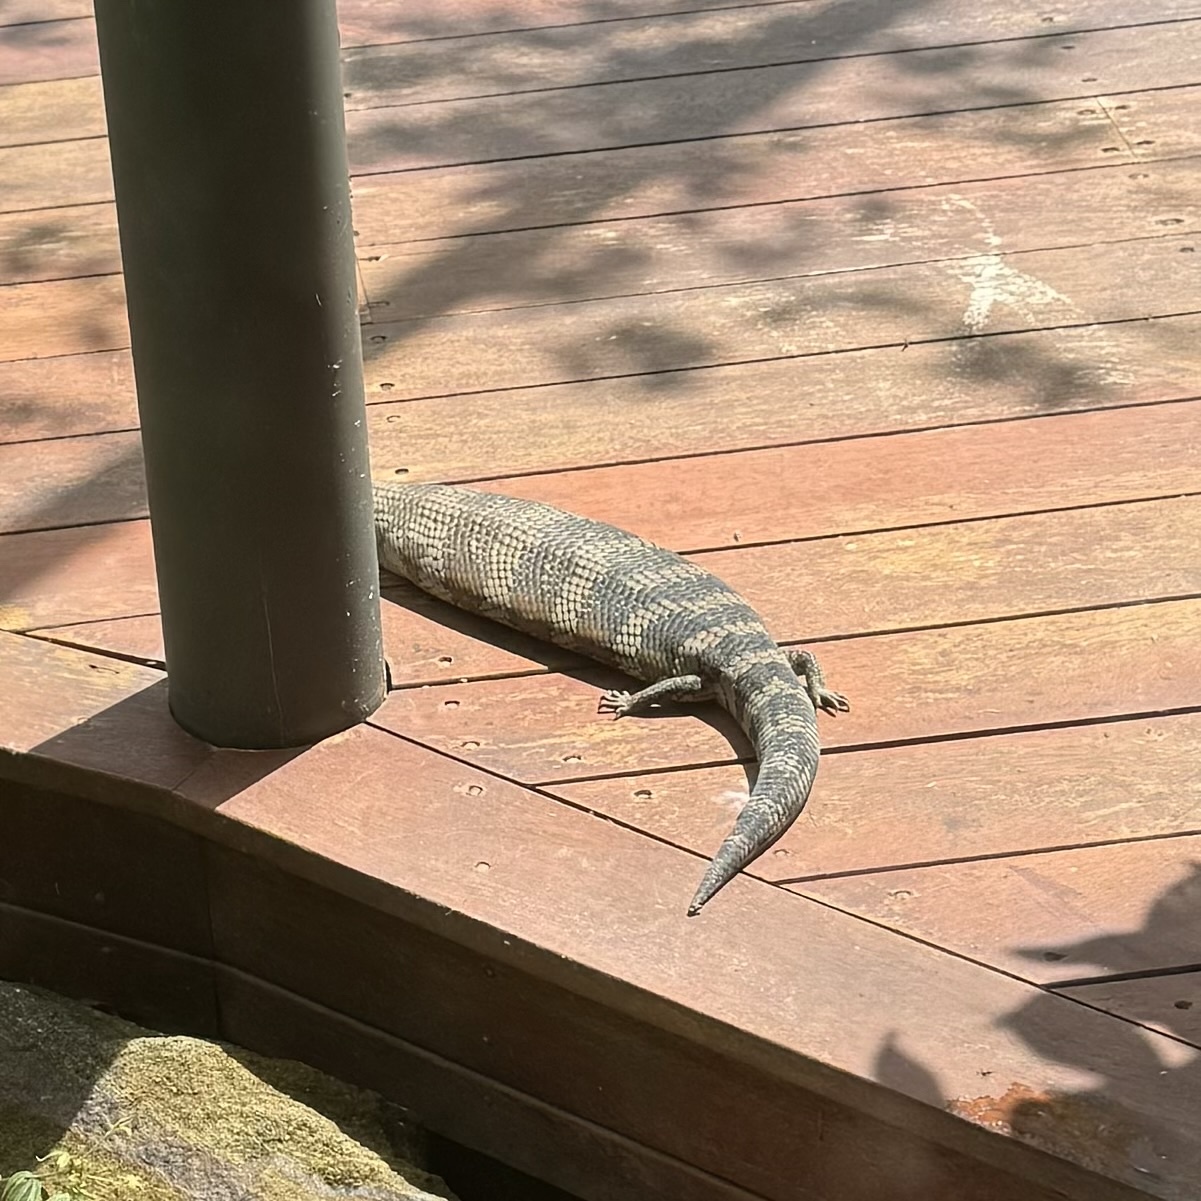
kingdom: Animalia
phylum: Chordata
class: Squamata
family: Scincidae
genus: Tiliqua
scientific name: Tiliqua scincoides
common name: Common bluetongue
